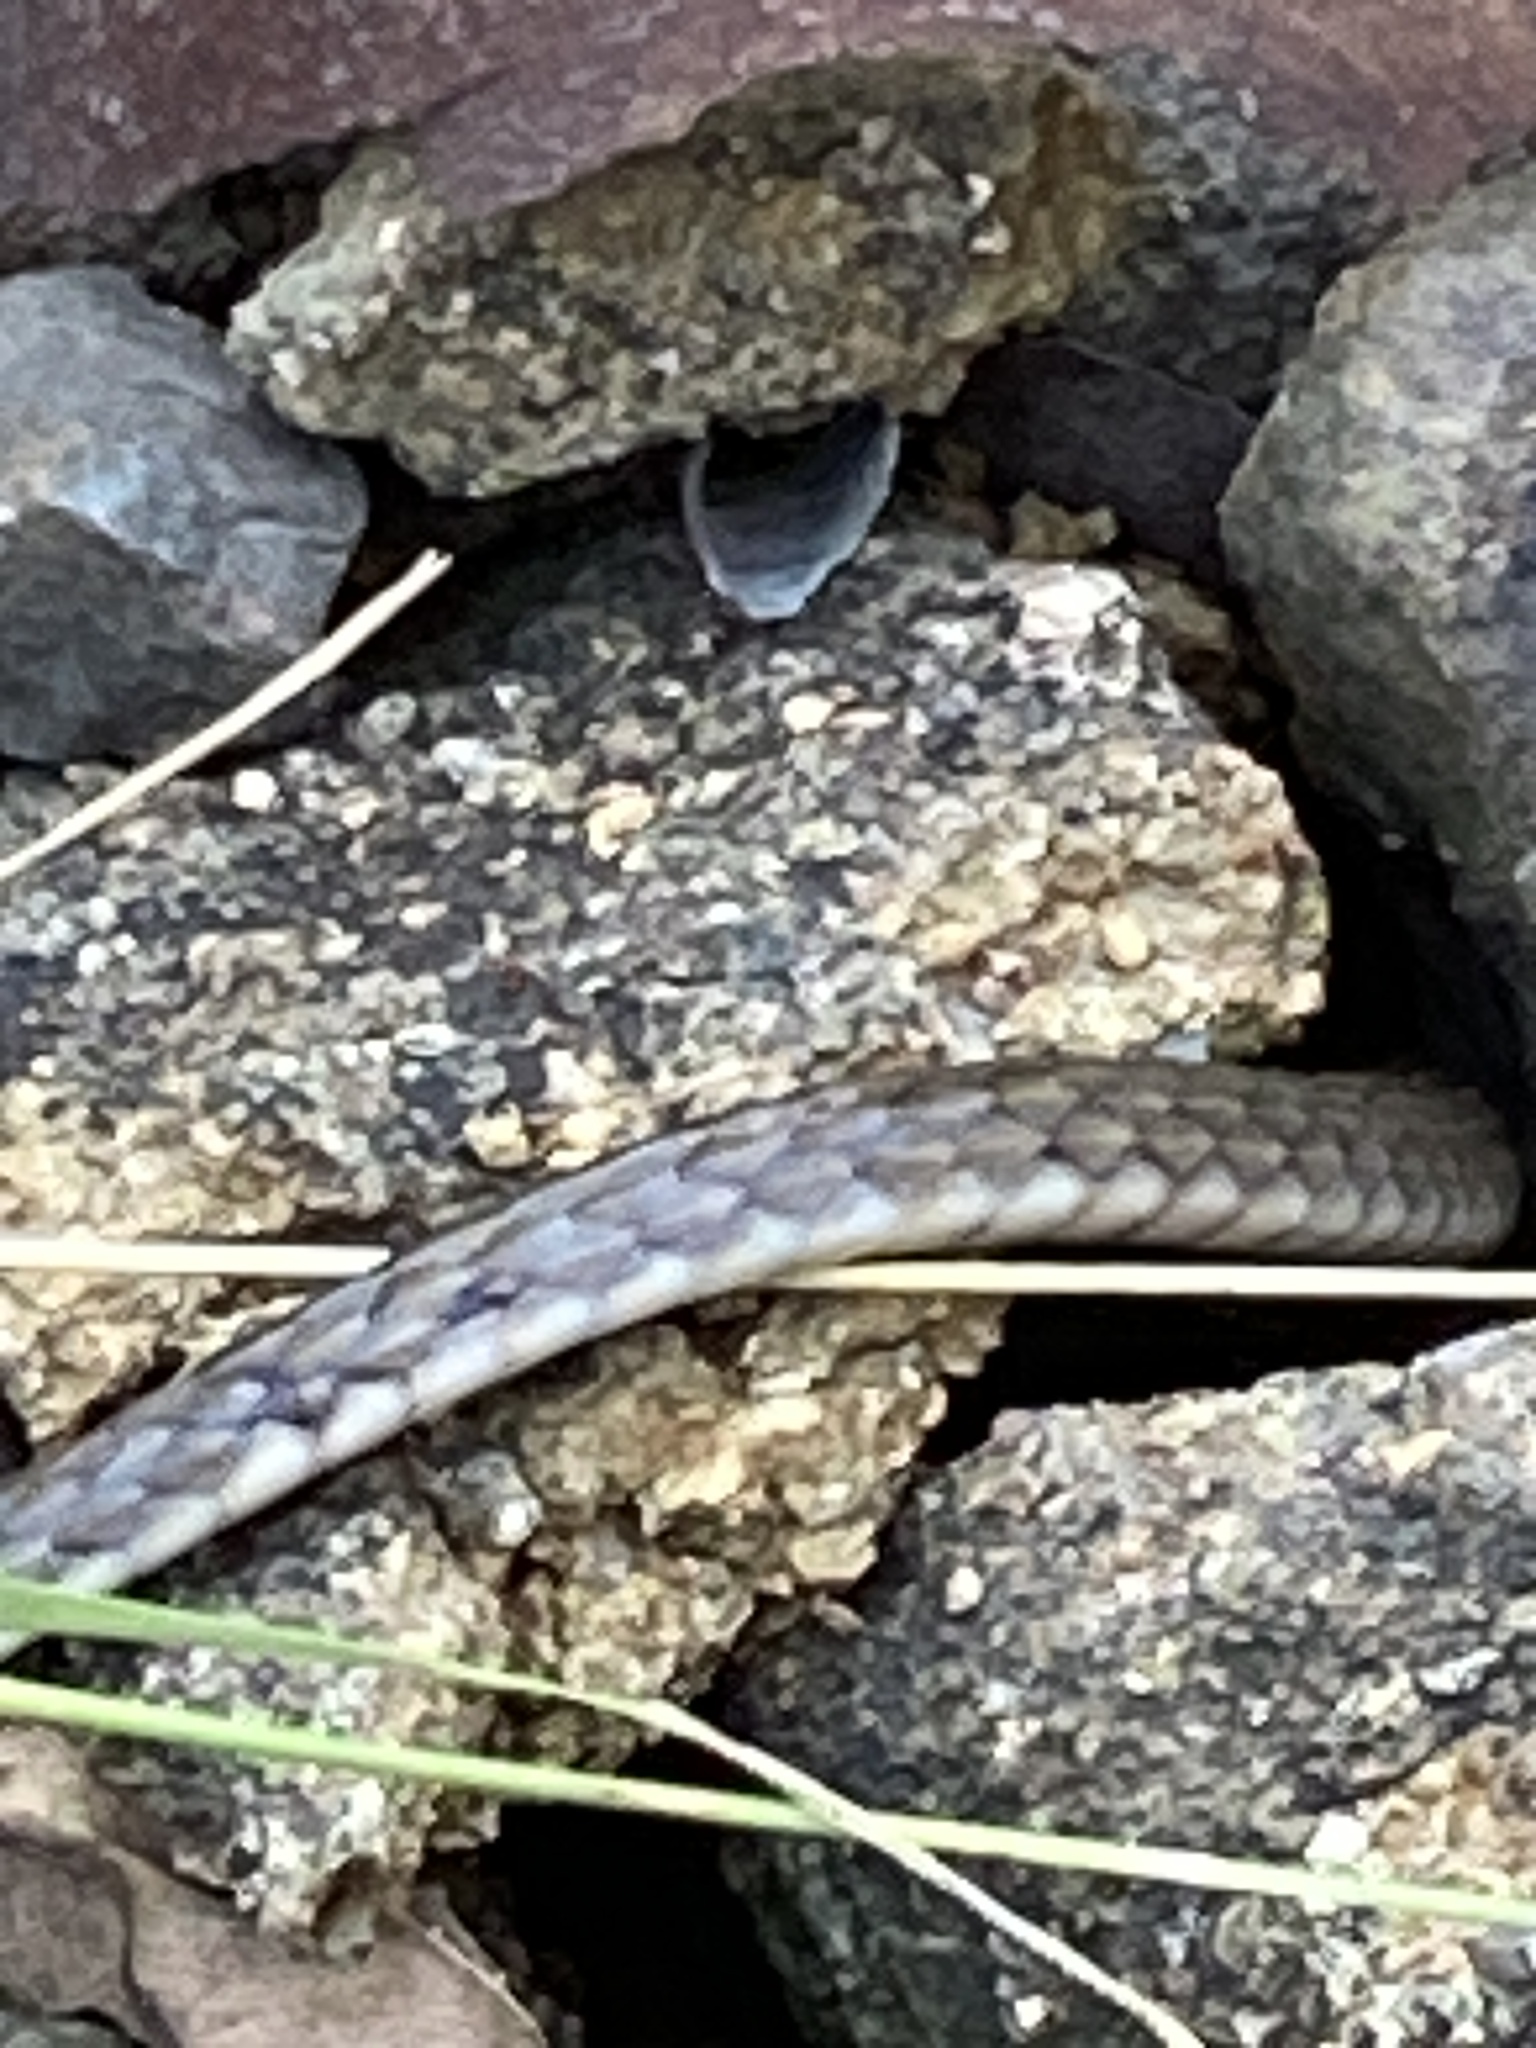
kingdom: Animalia
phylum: Chordata
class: Squamata
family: Colubridae
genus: Tropidonophis
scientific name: Tropidonophis mairii
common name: Common keelback
